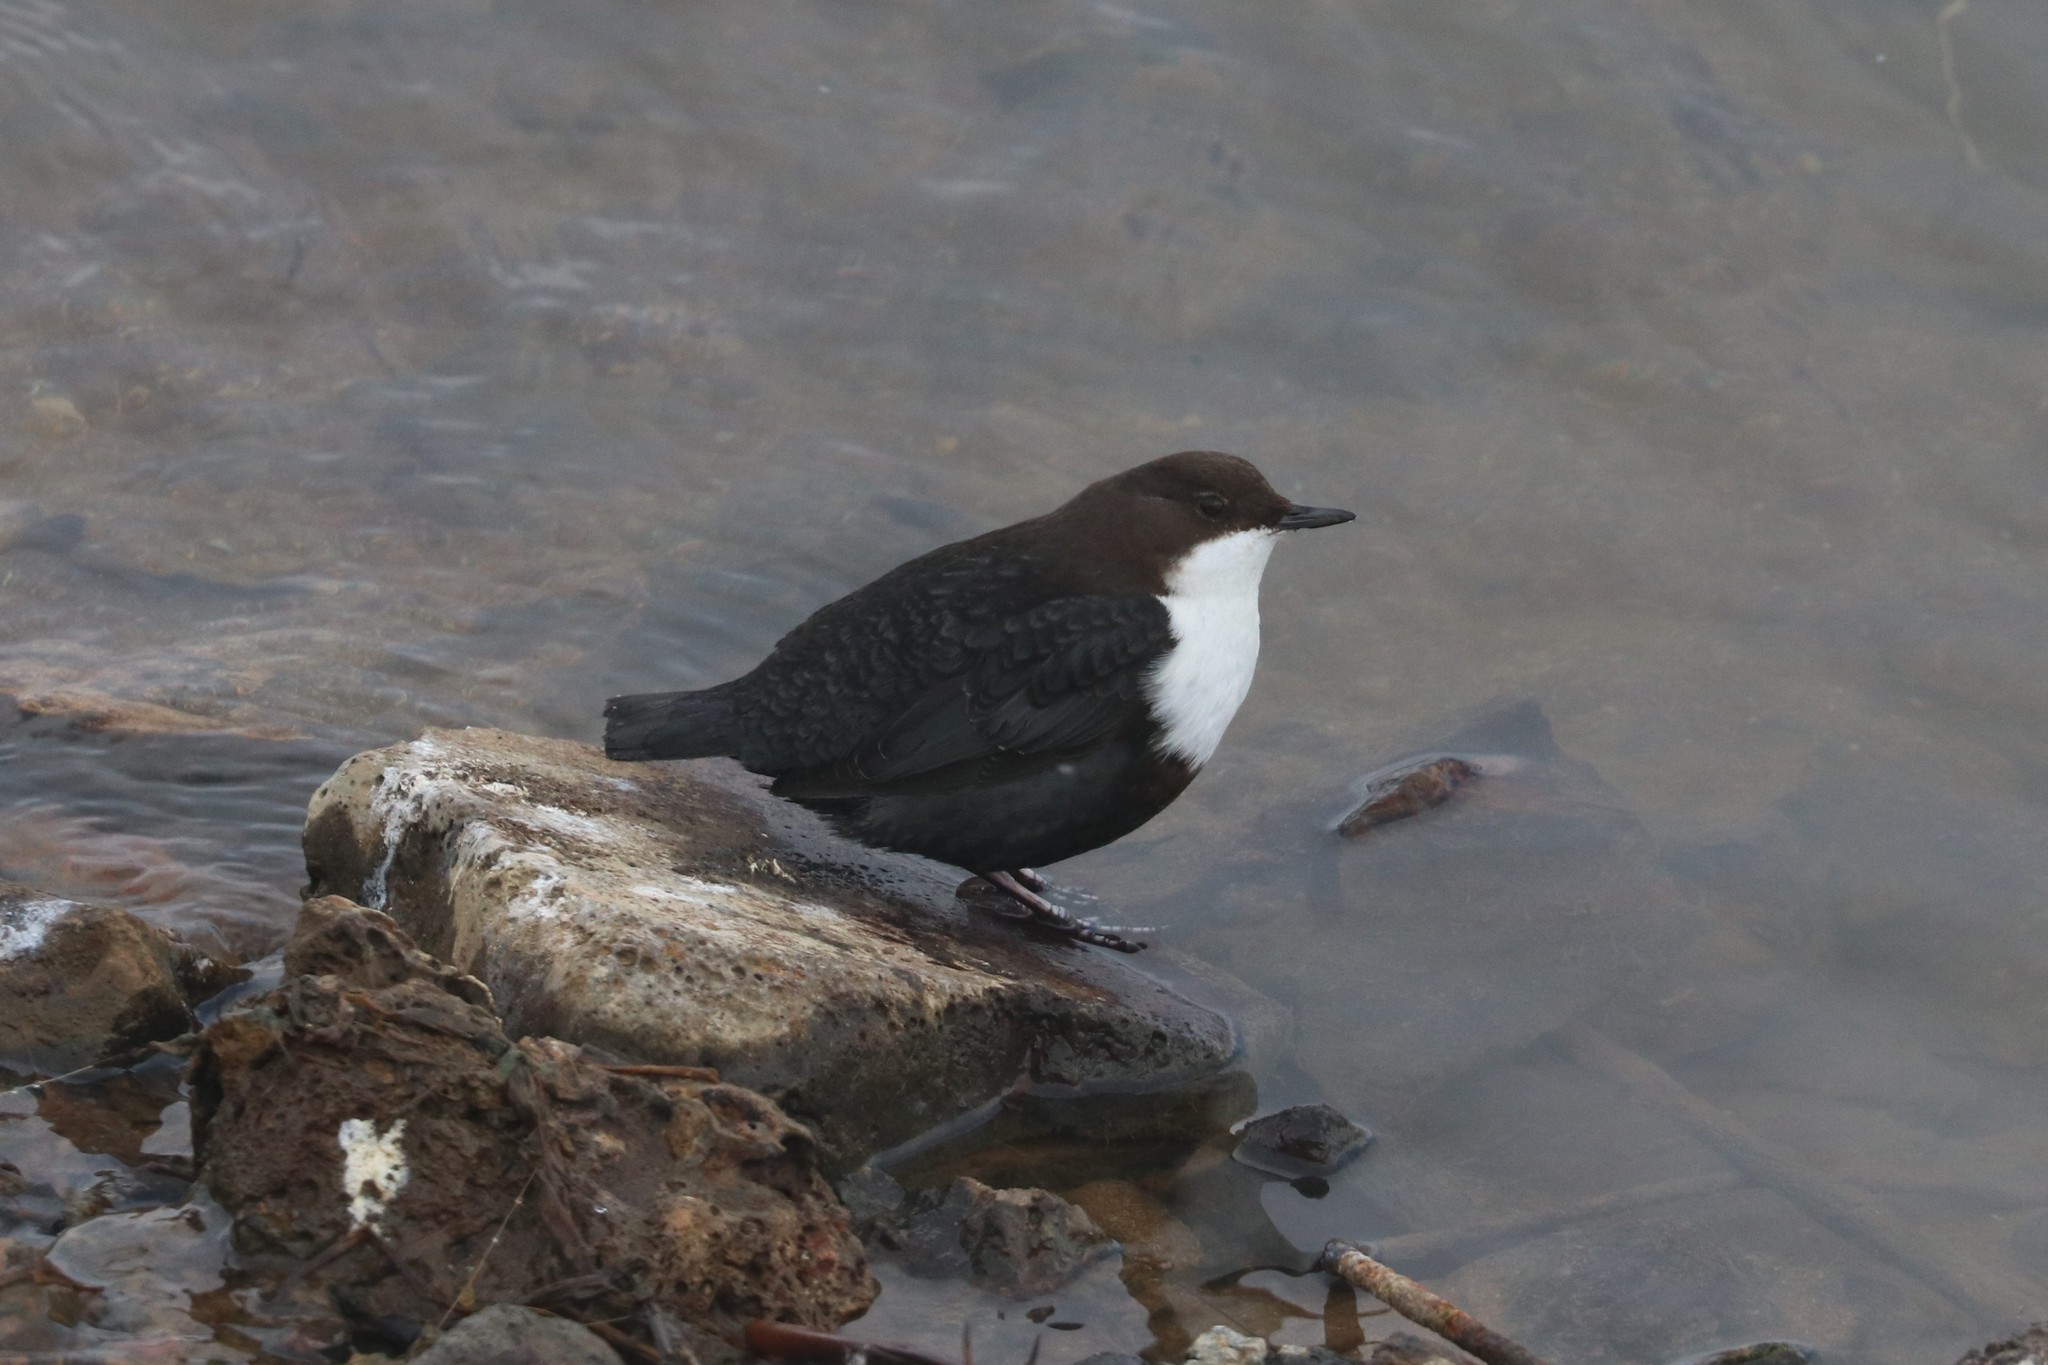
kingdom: Animalia
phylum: Chordata
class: Aves
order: Passeriformes
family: Cinclidae
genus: Cinclus
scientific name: Cinclus cinclus
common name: White-throated dipper
